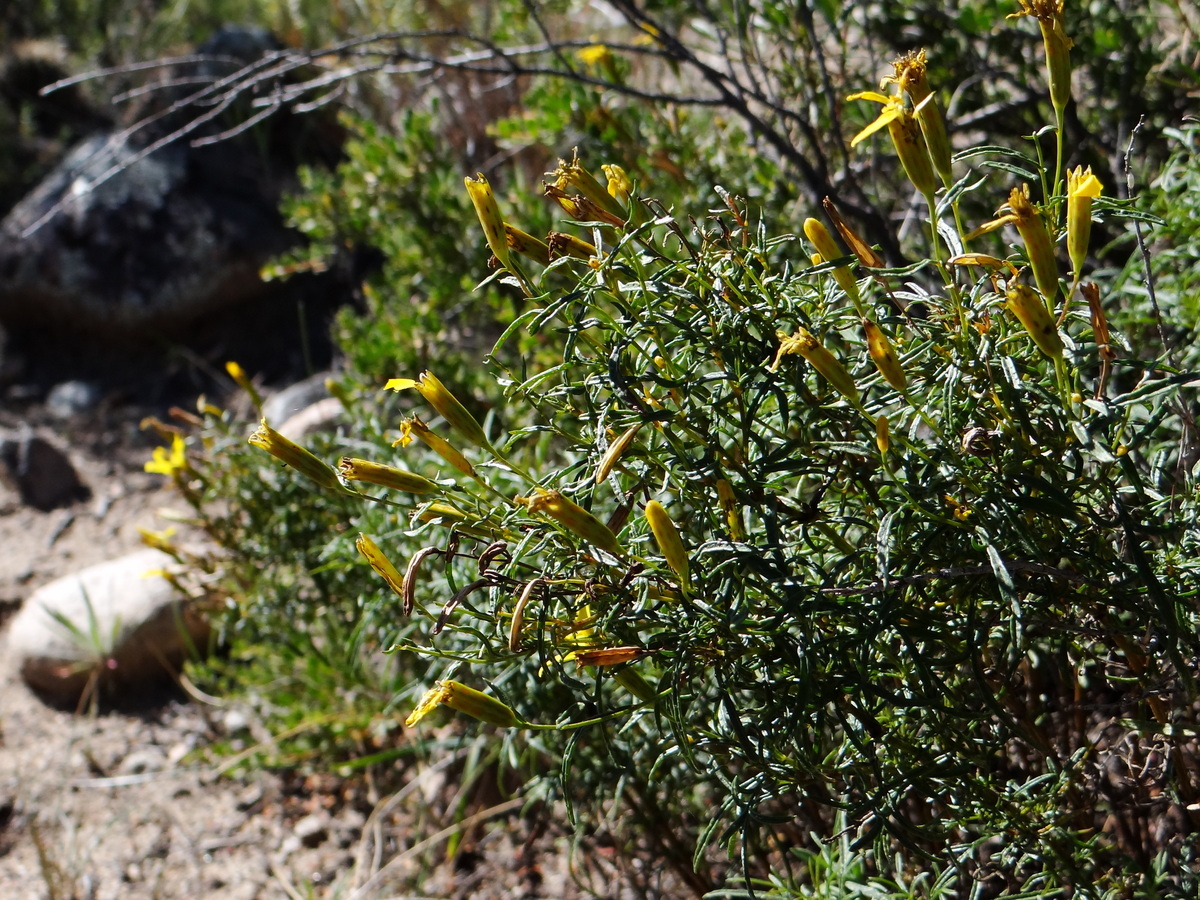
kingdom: Plantae
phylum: Tracheophyta
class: Magnoliopsida
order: Asterales
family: Asteraceae
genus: Tagetes
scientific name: Tagetes pauciloba
